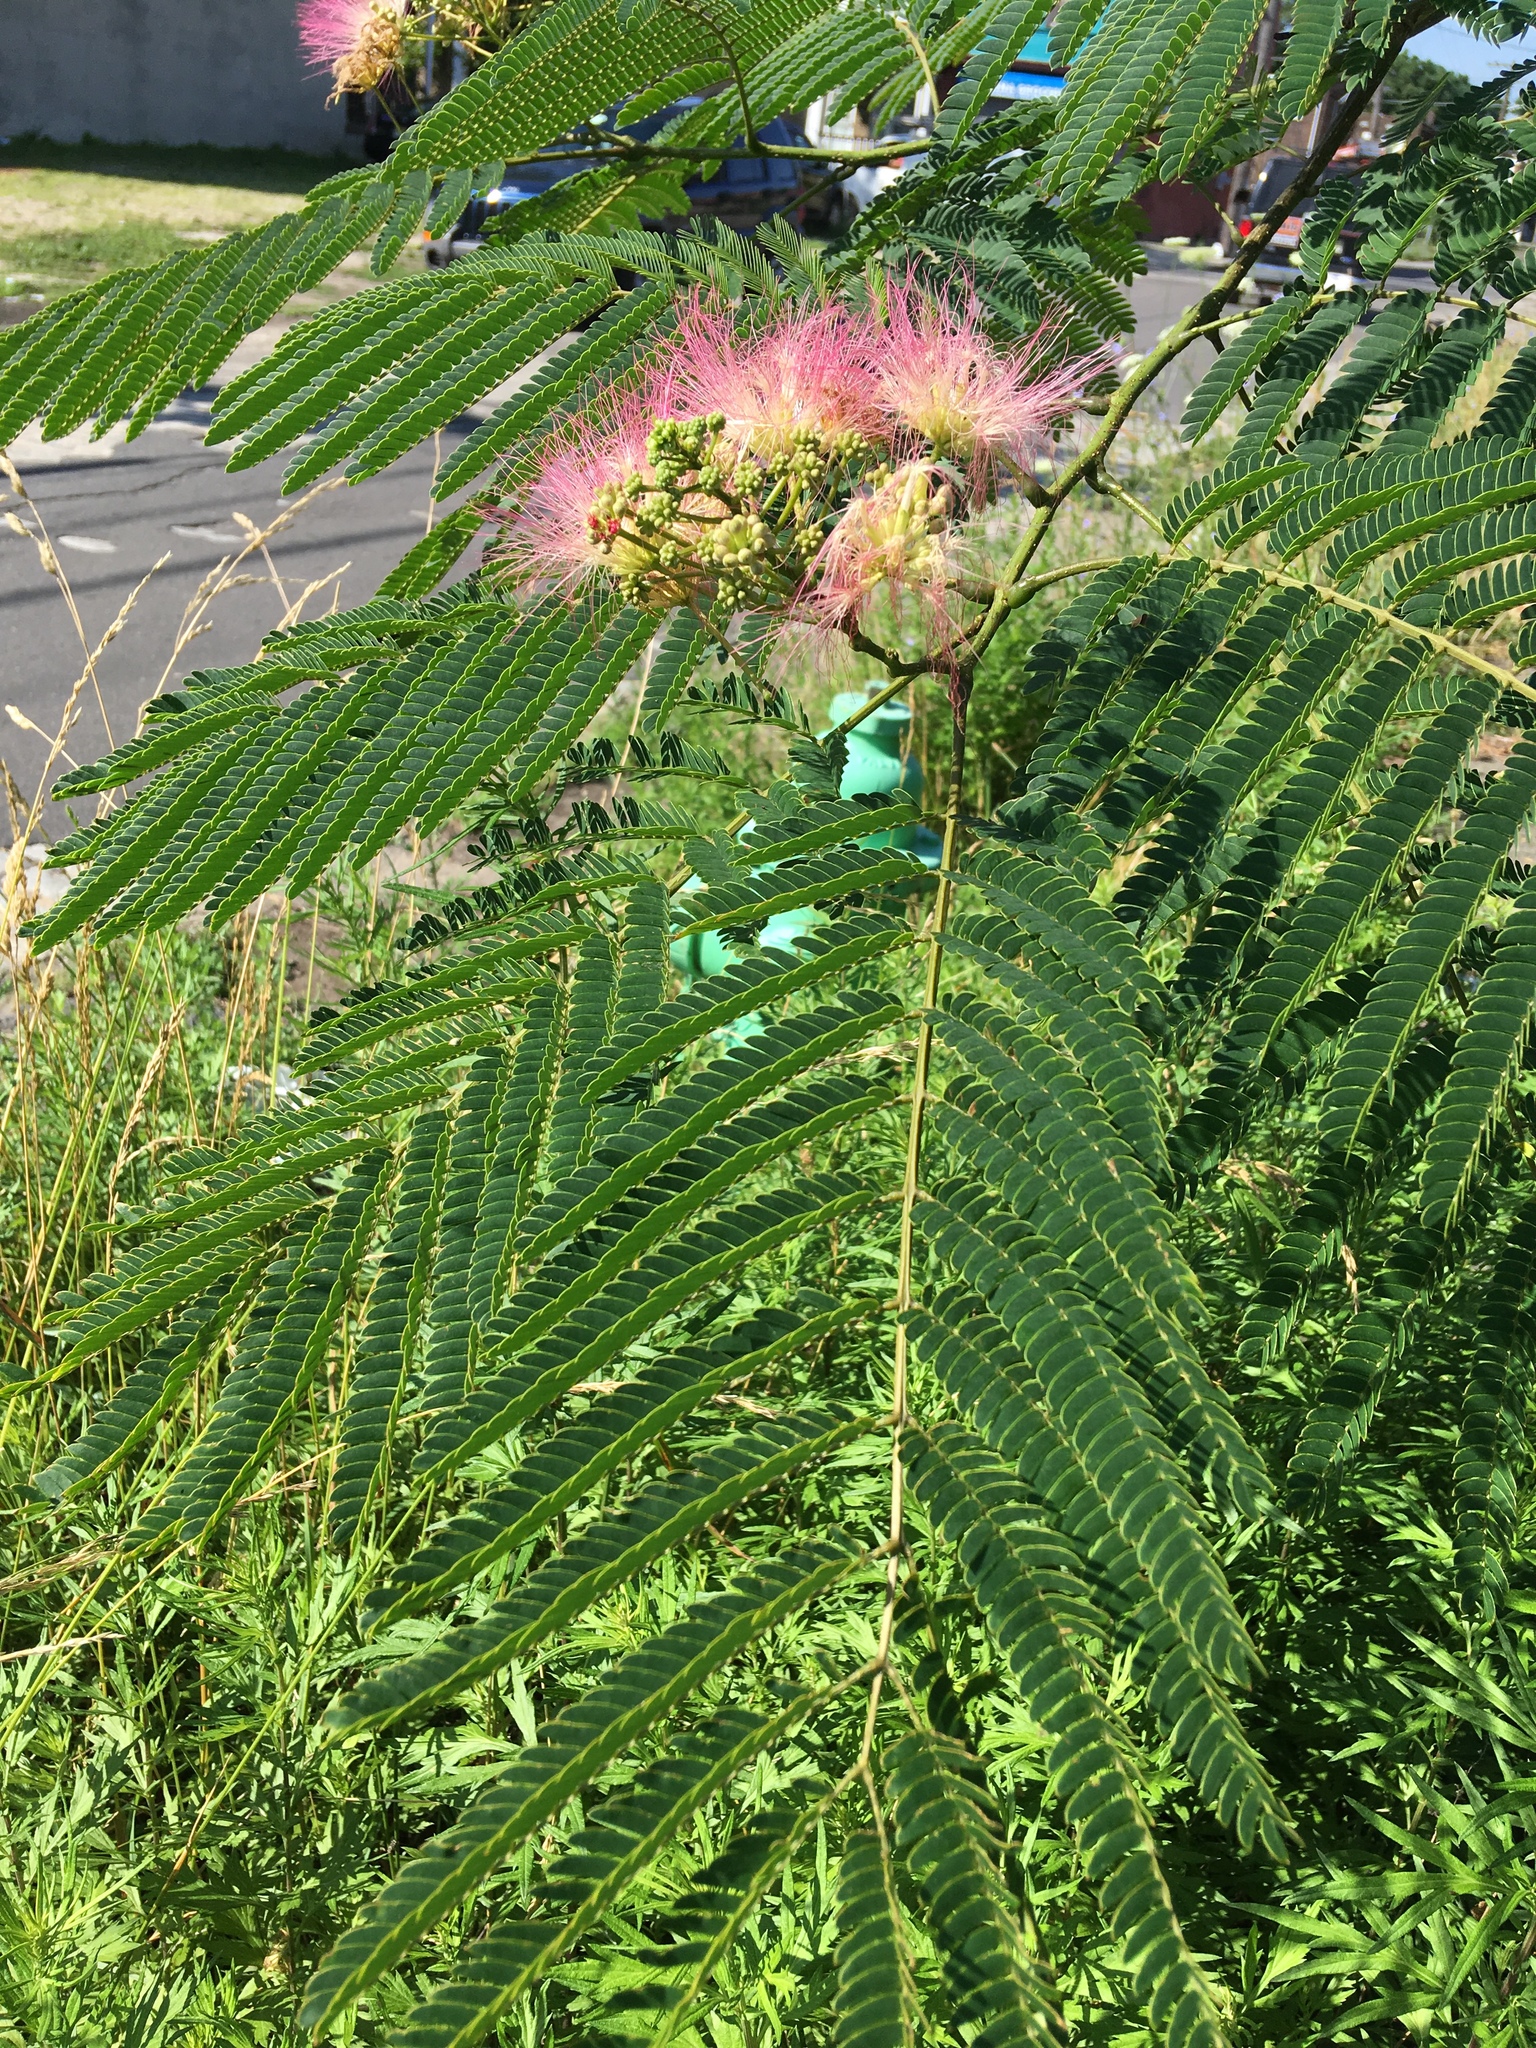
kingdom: Plantae
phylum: Tracheophyta
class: Magnoliopsida
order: Fabales
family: Fabaceae
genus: Albizia
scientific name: Albizia julibrissin
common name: Silktree
